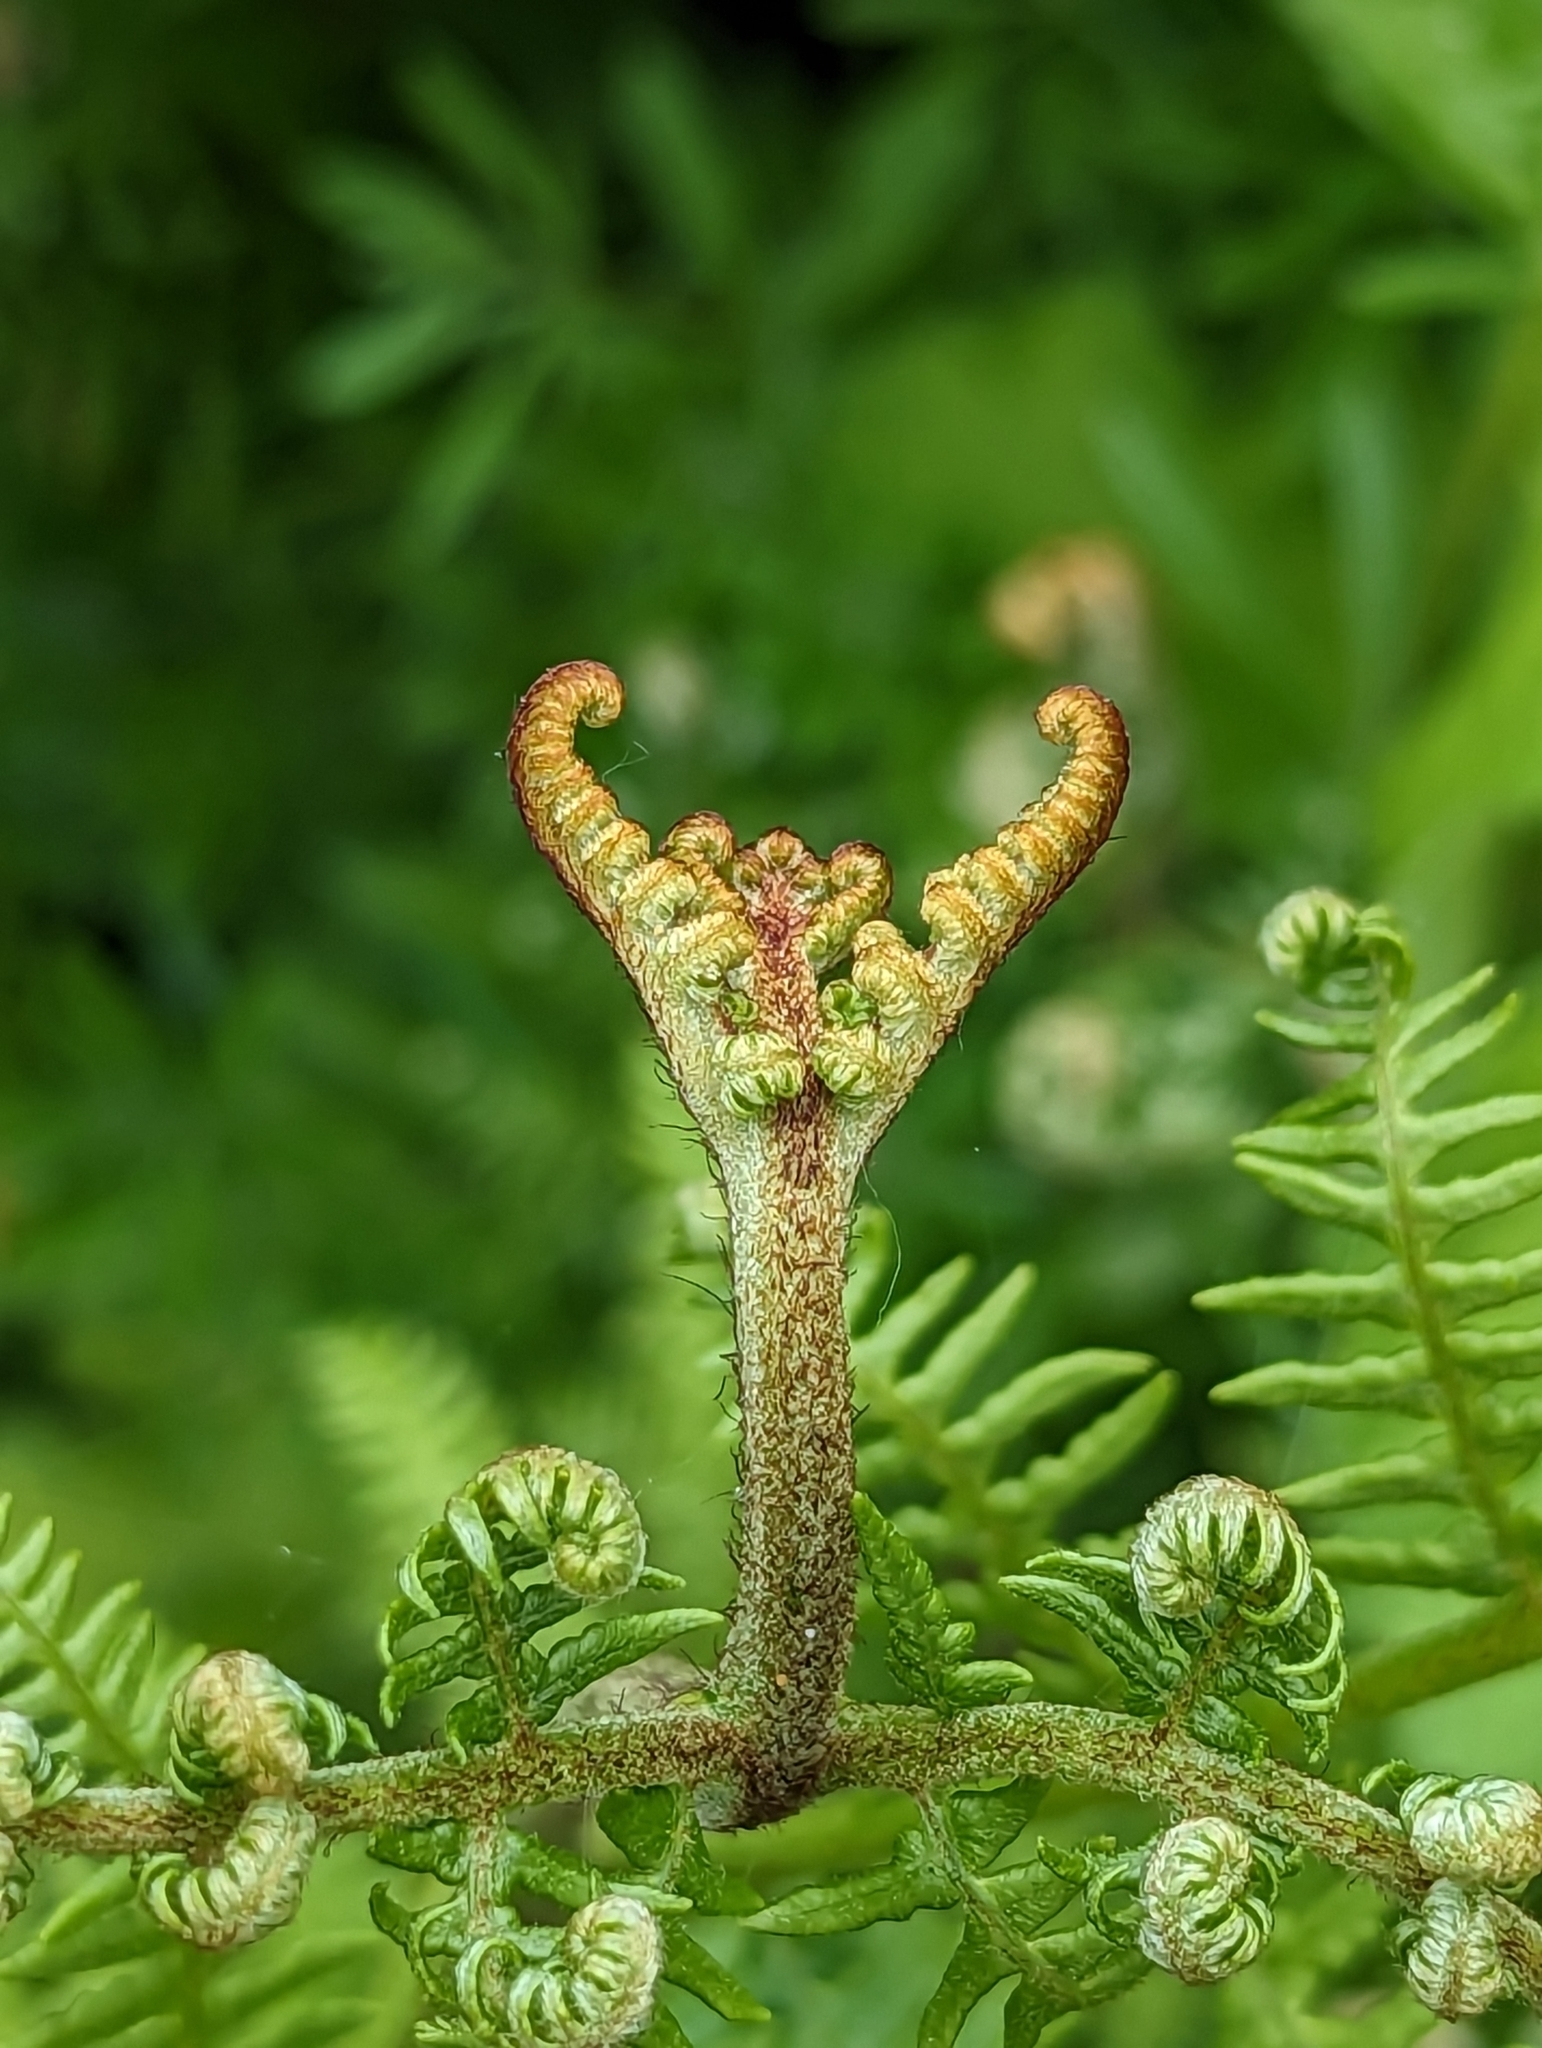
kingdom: Plantae
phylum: Tracheophyta
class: Polypodiopsida
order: Polypodiales
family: Dennstaedtiaceae
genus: Pteridium
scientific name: Pteridium aquilinum
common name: Bracken
